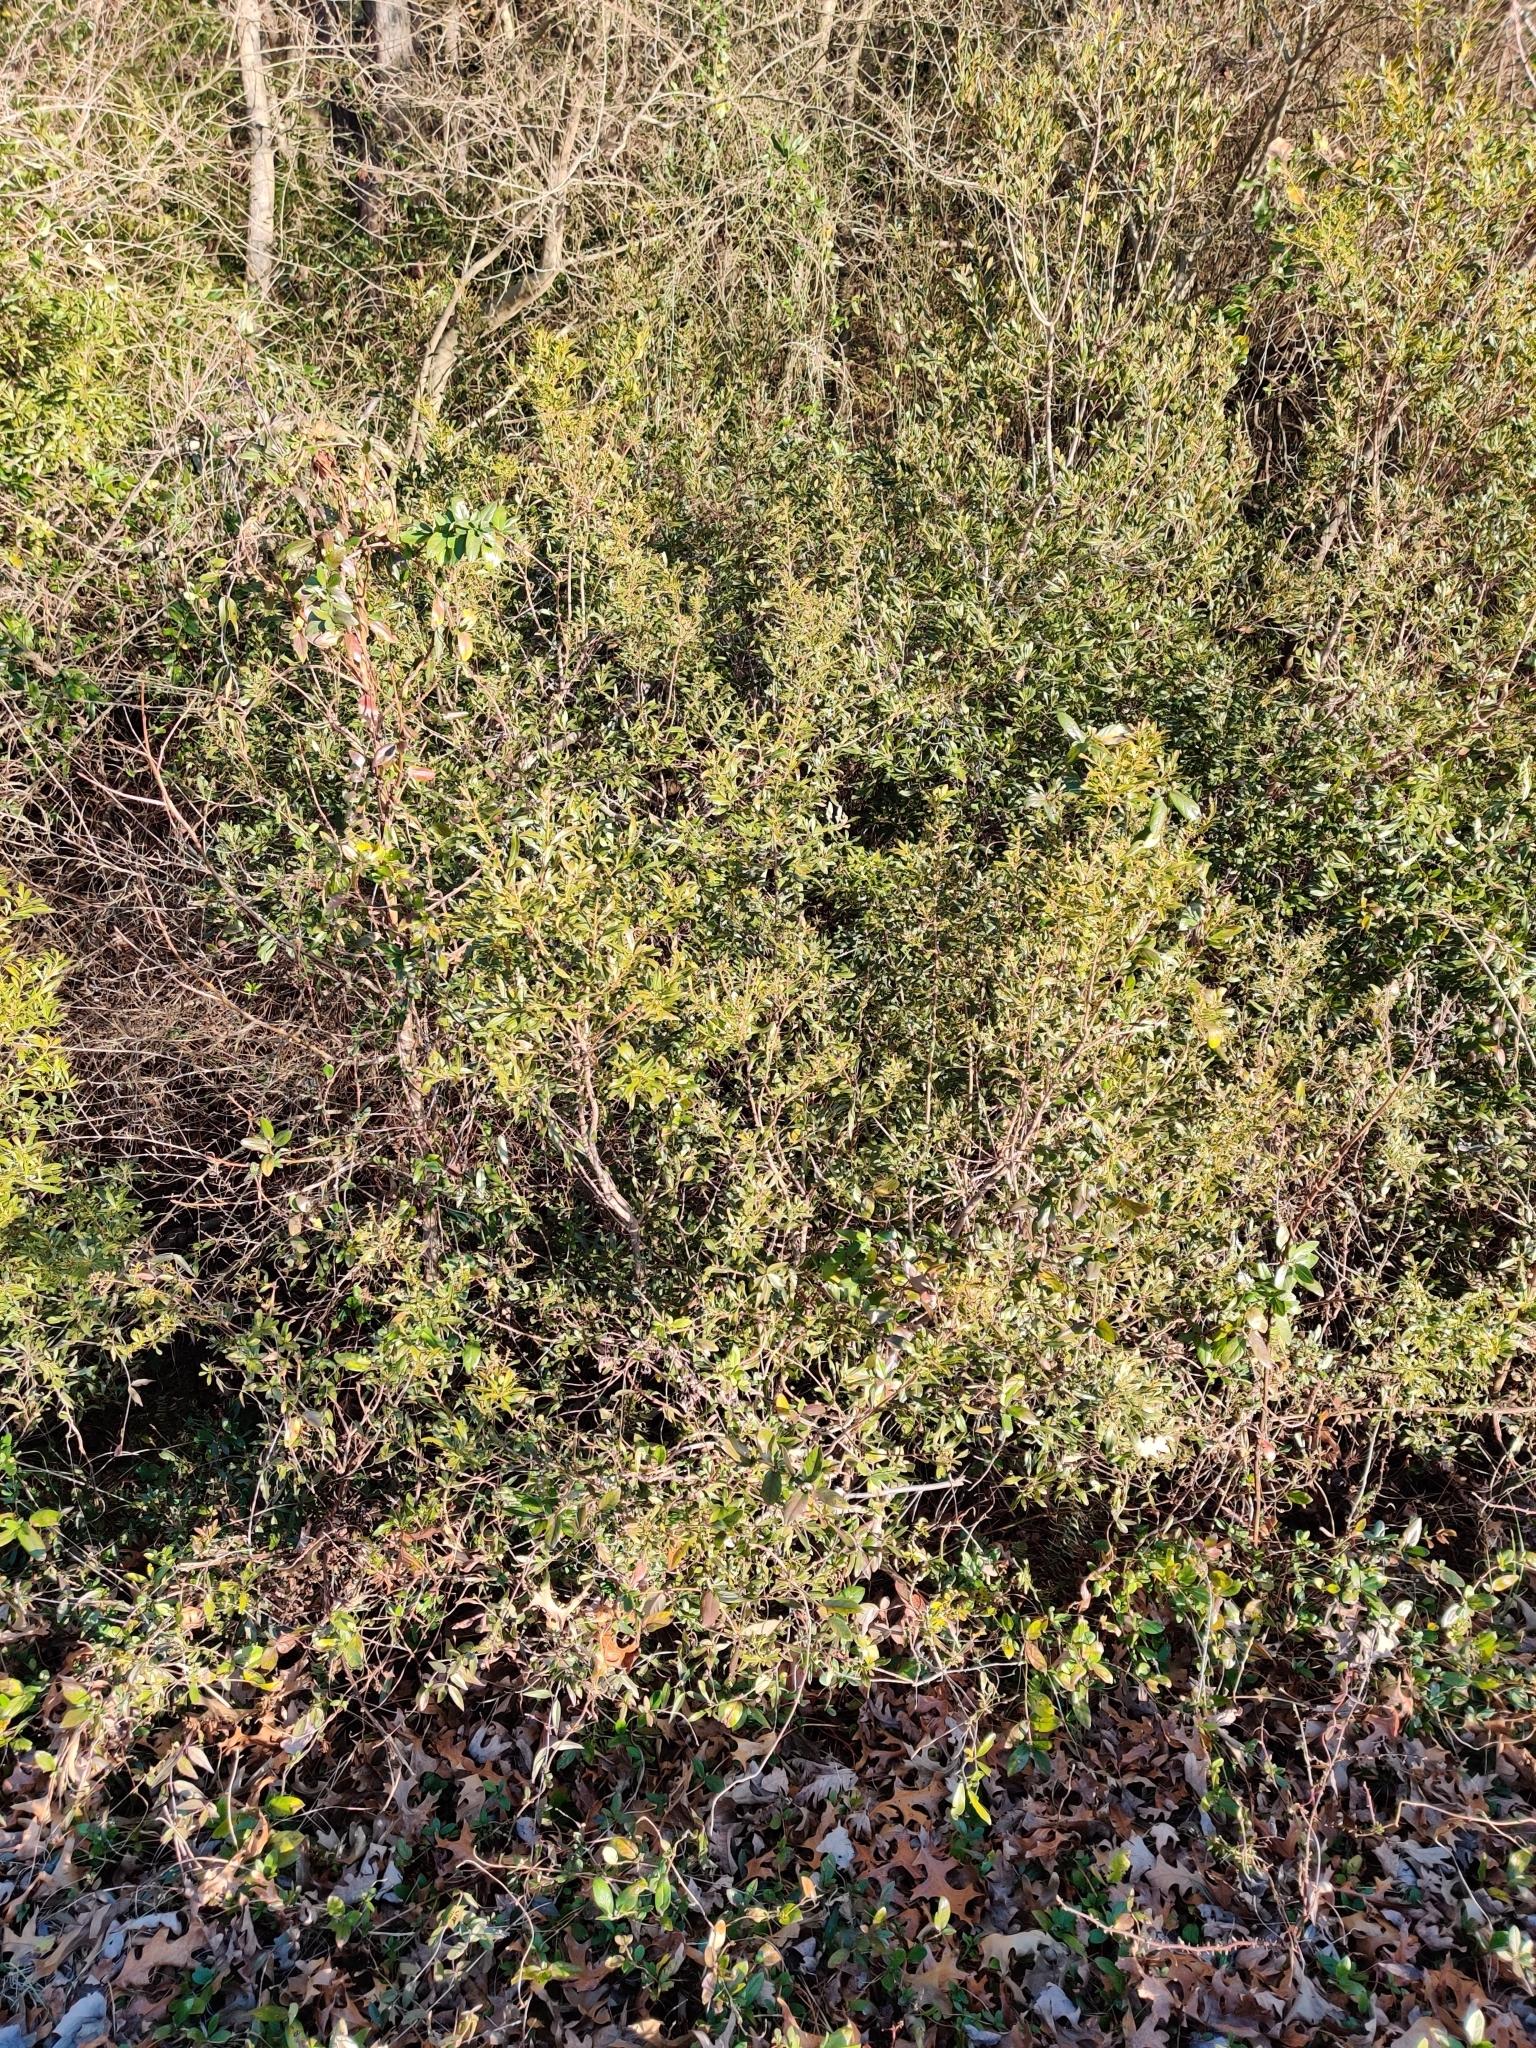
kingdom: Plantae
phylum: Tracheophyta
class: Magnoliopsida
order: Fagales
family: Myricaceae
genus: Morella
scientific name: Morella cerifera
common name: Wax myrtle
